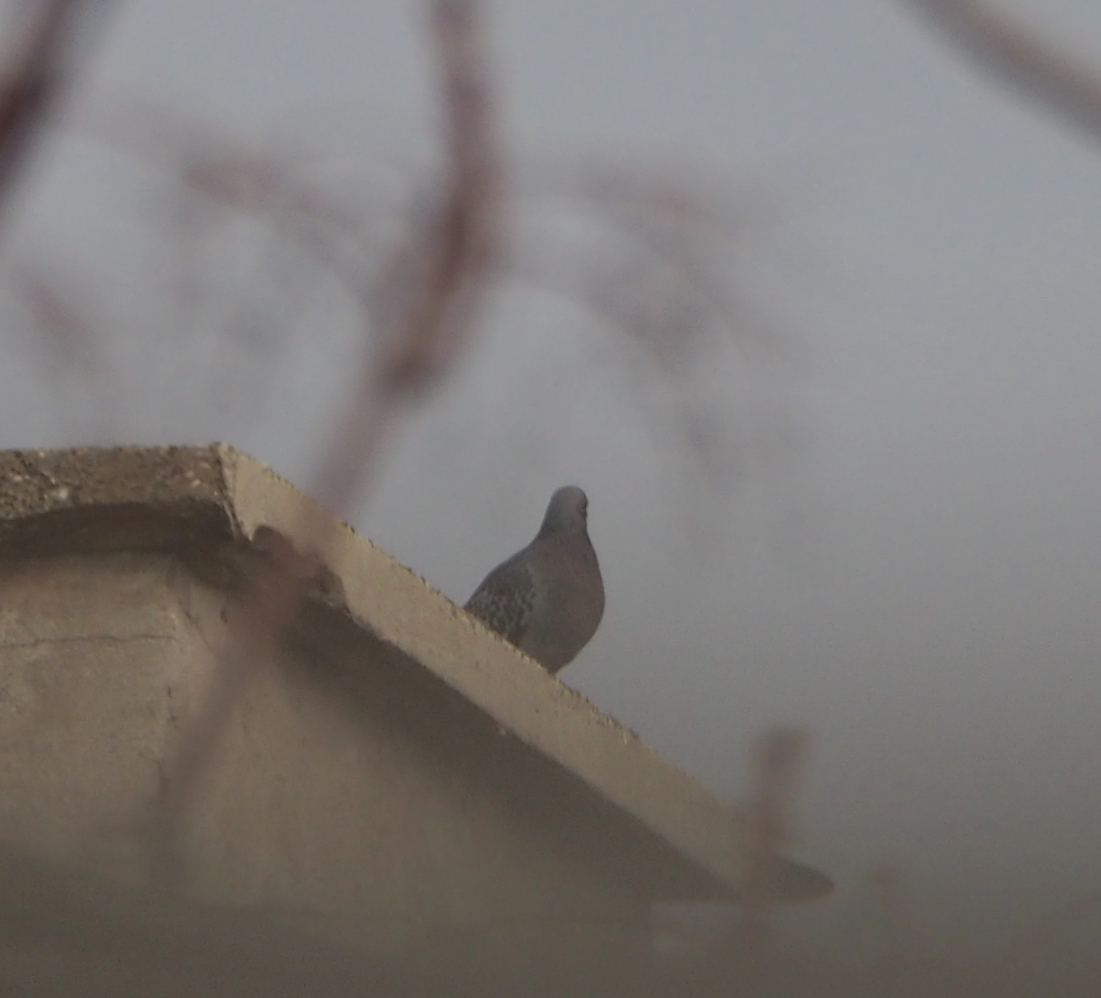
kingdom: Animalia
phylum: Chordata
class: Aves
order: Columbiformes
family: Columbidae
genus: Columba
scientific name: Columba livia
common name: Rock pigeon
